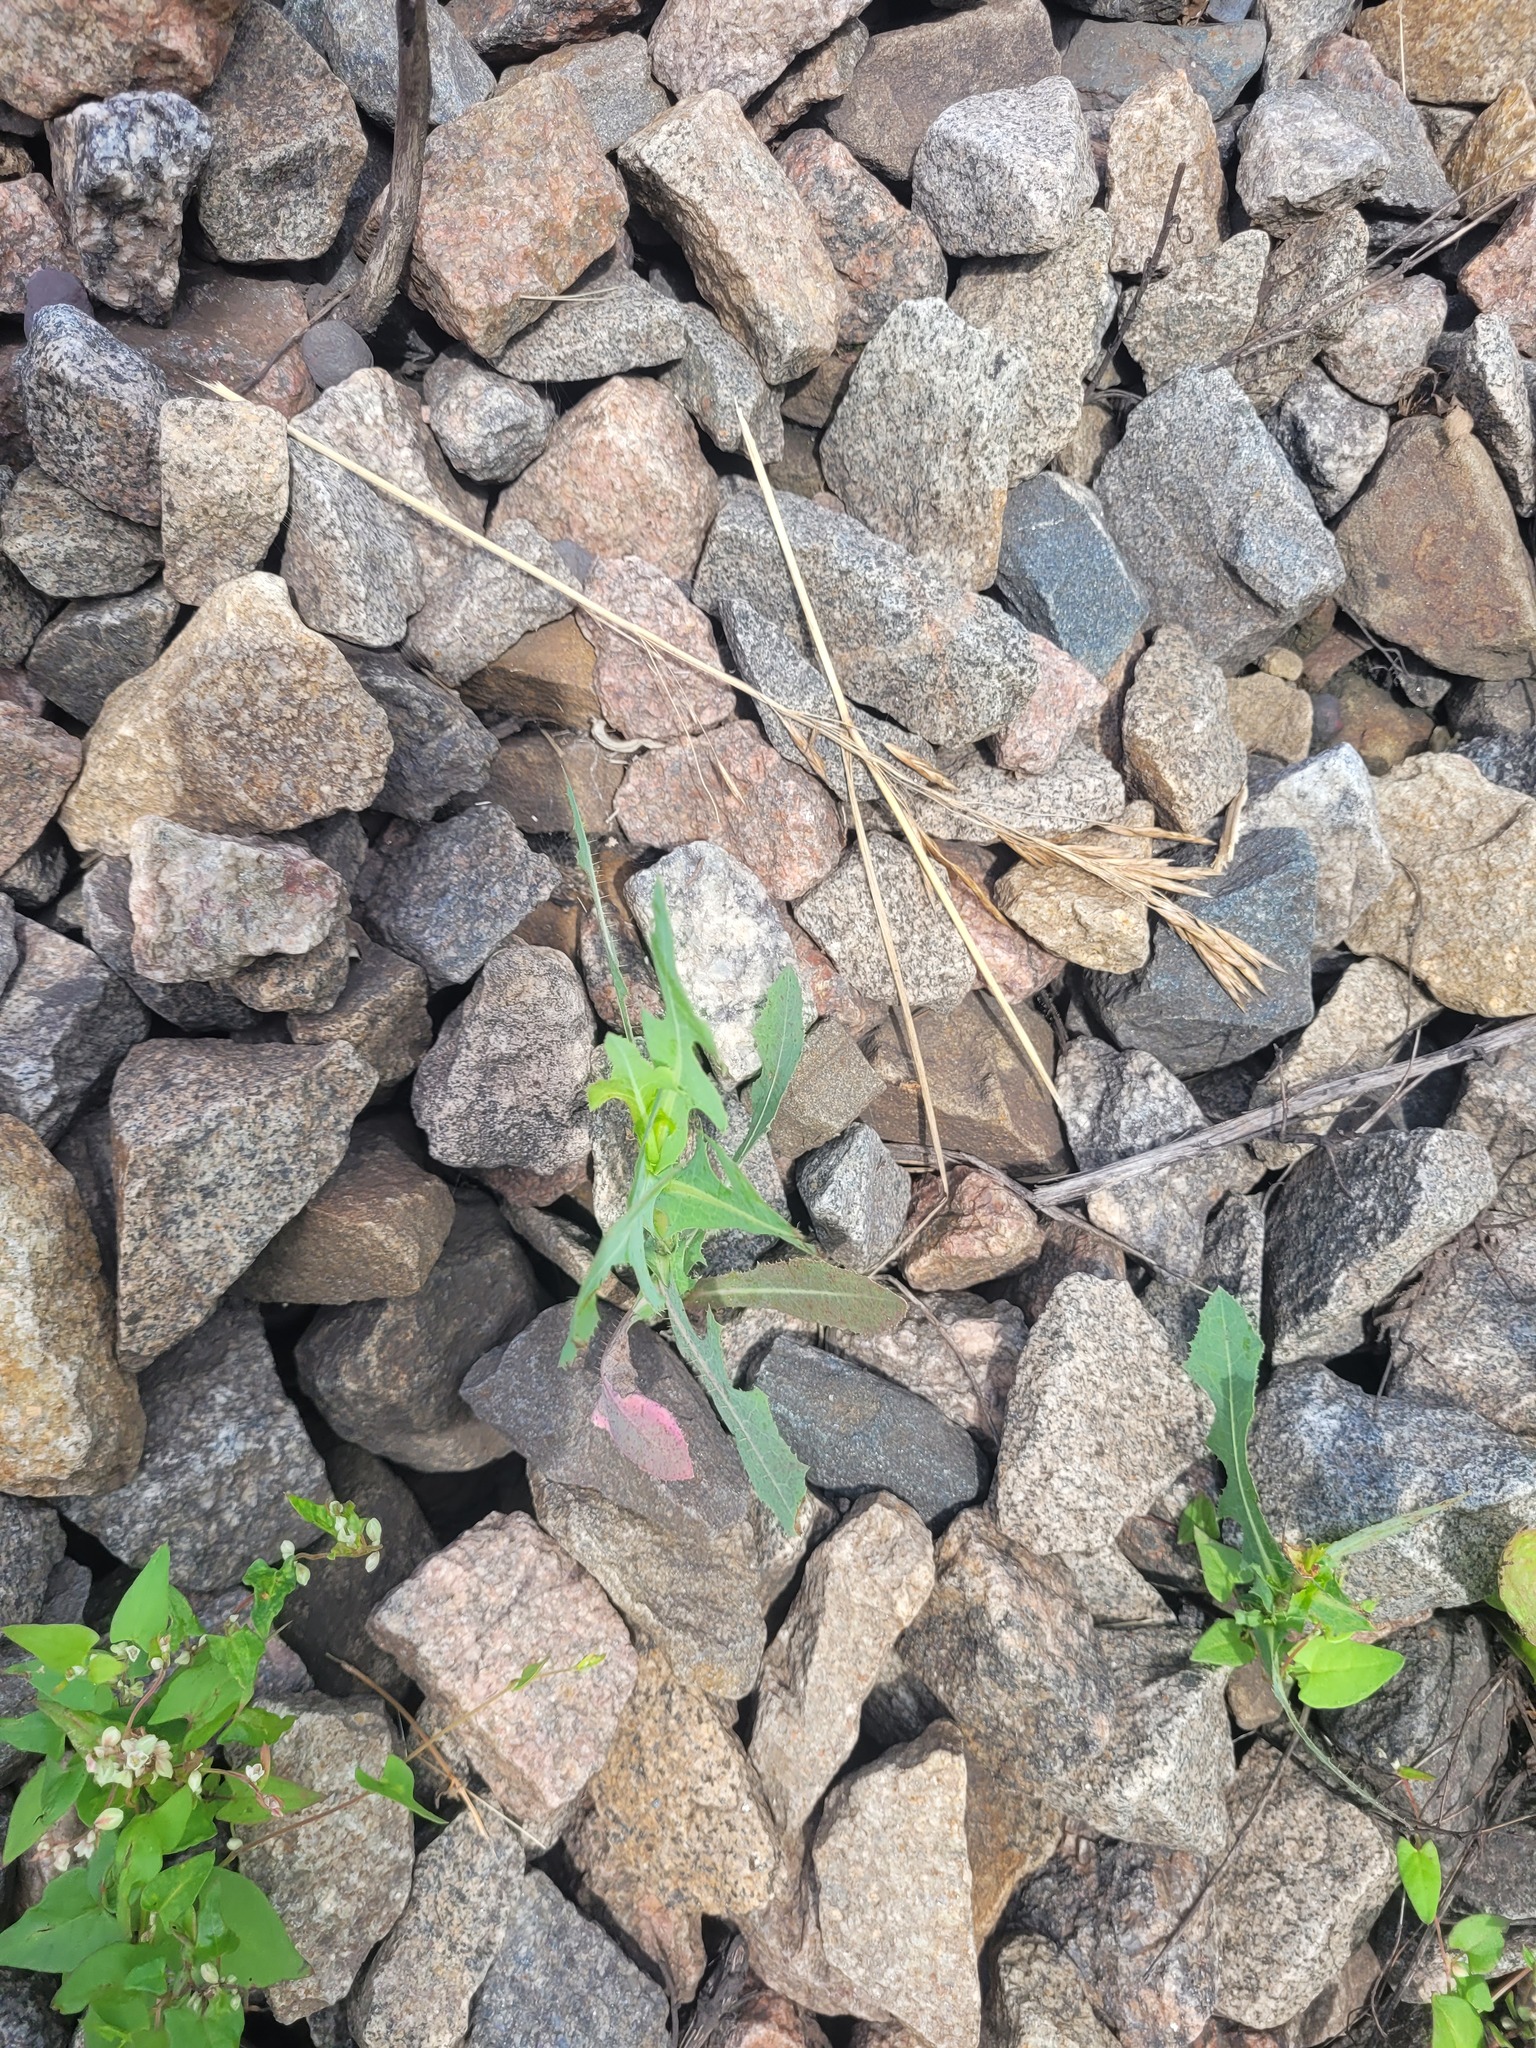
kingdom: Plantae
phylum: Tracheophyta
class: Magnoliopsida
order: Asterales
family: Asteraceae
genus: Lactuca
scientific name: Lactuca serriola
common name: Prickly lettuce
